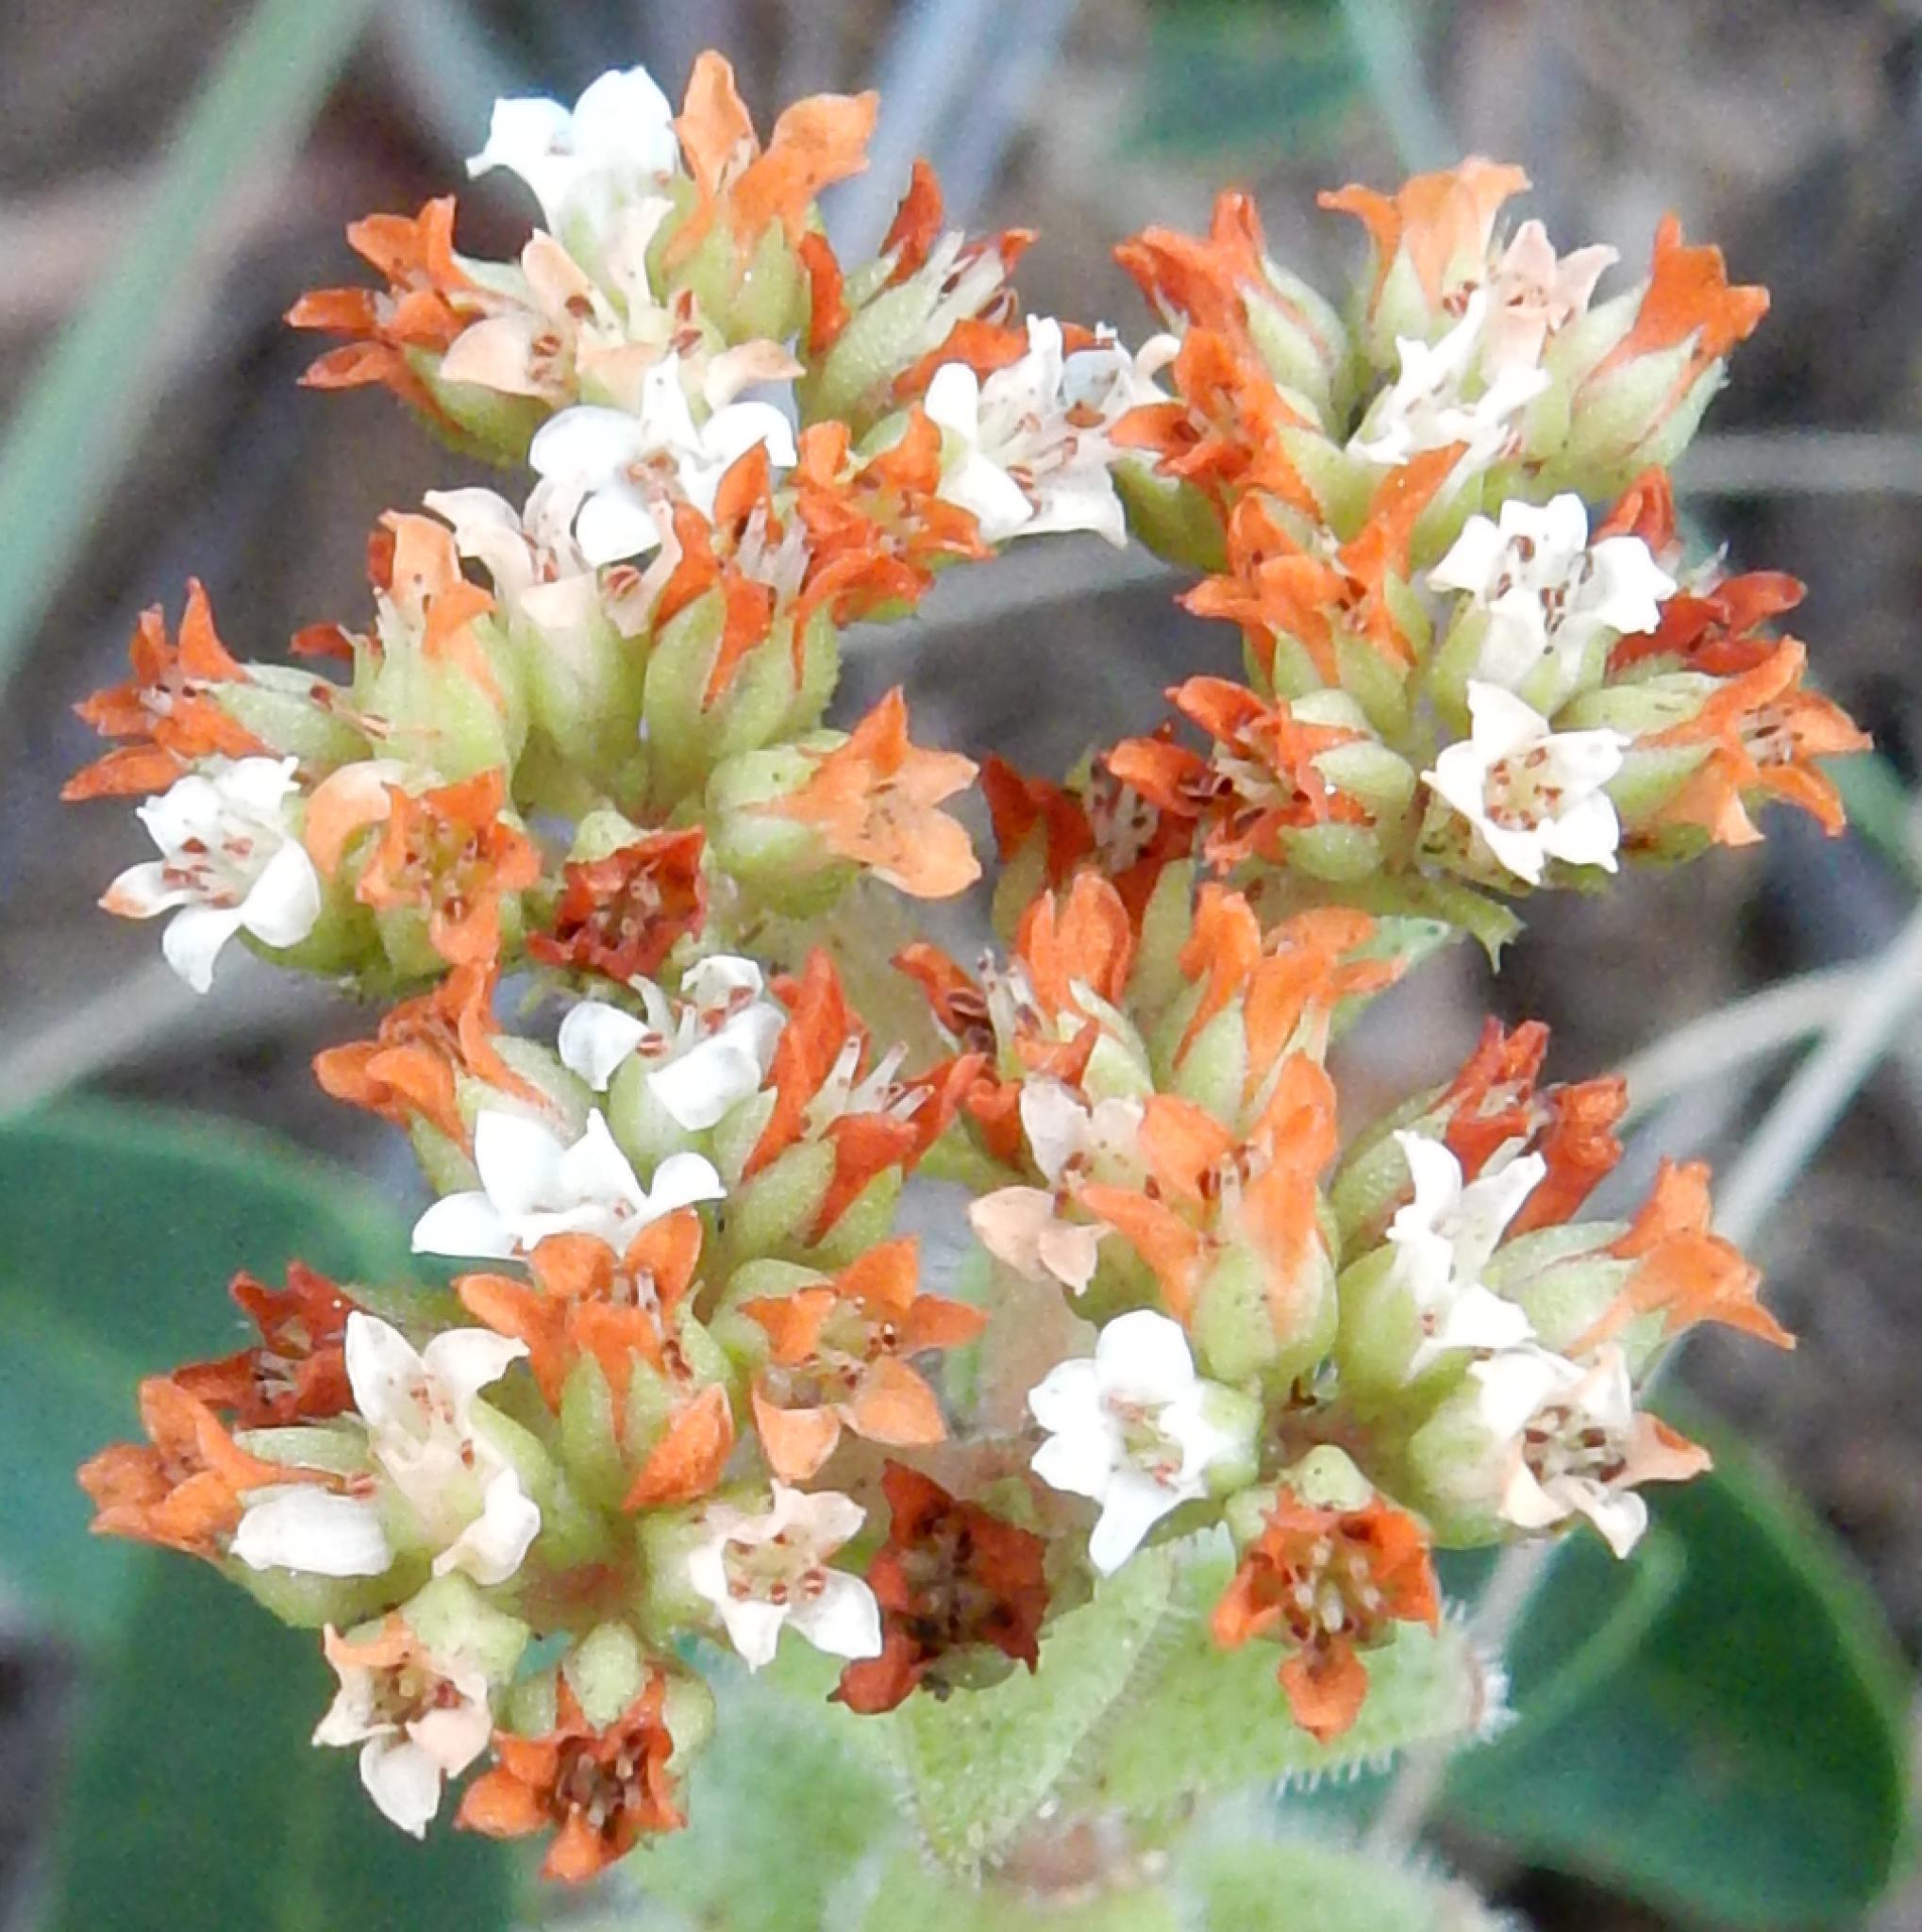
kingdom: Plantae
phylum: Tracheophyta
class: Magnoliopsida
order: Saxifragales
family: Crassulaceae
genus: Crassula
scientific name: Crassula setulosa
